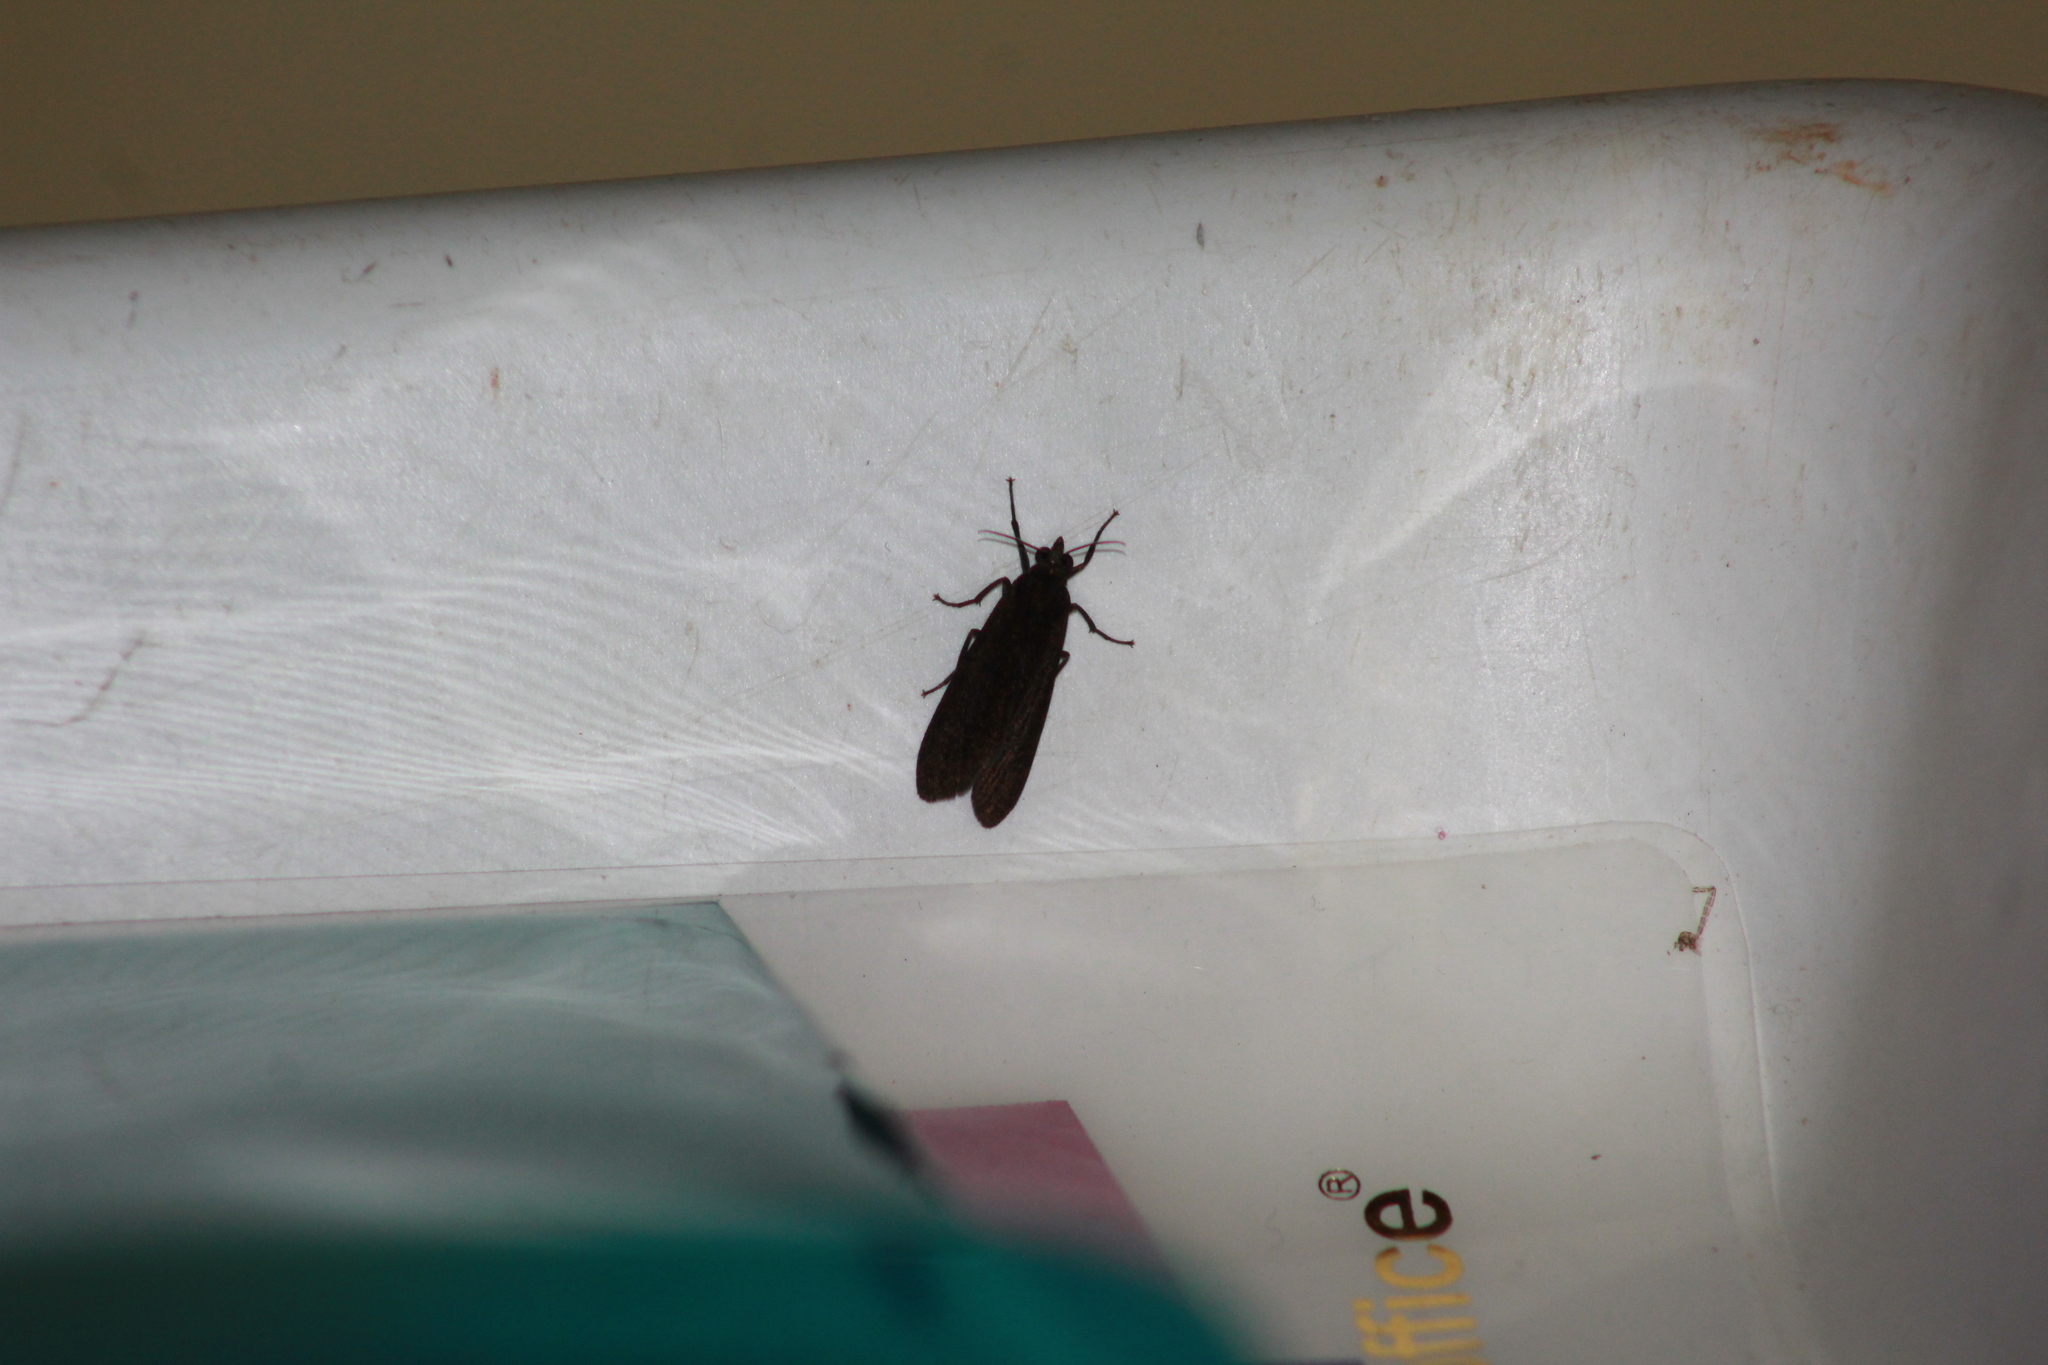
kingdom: Animalia
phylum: Arthropoda
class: Insecta
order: Lepidoptera
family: Erebidae
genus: Virbia
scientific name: Virbia medarda
